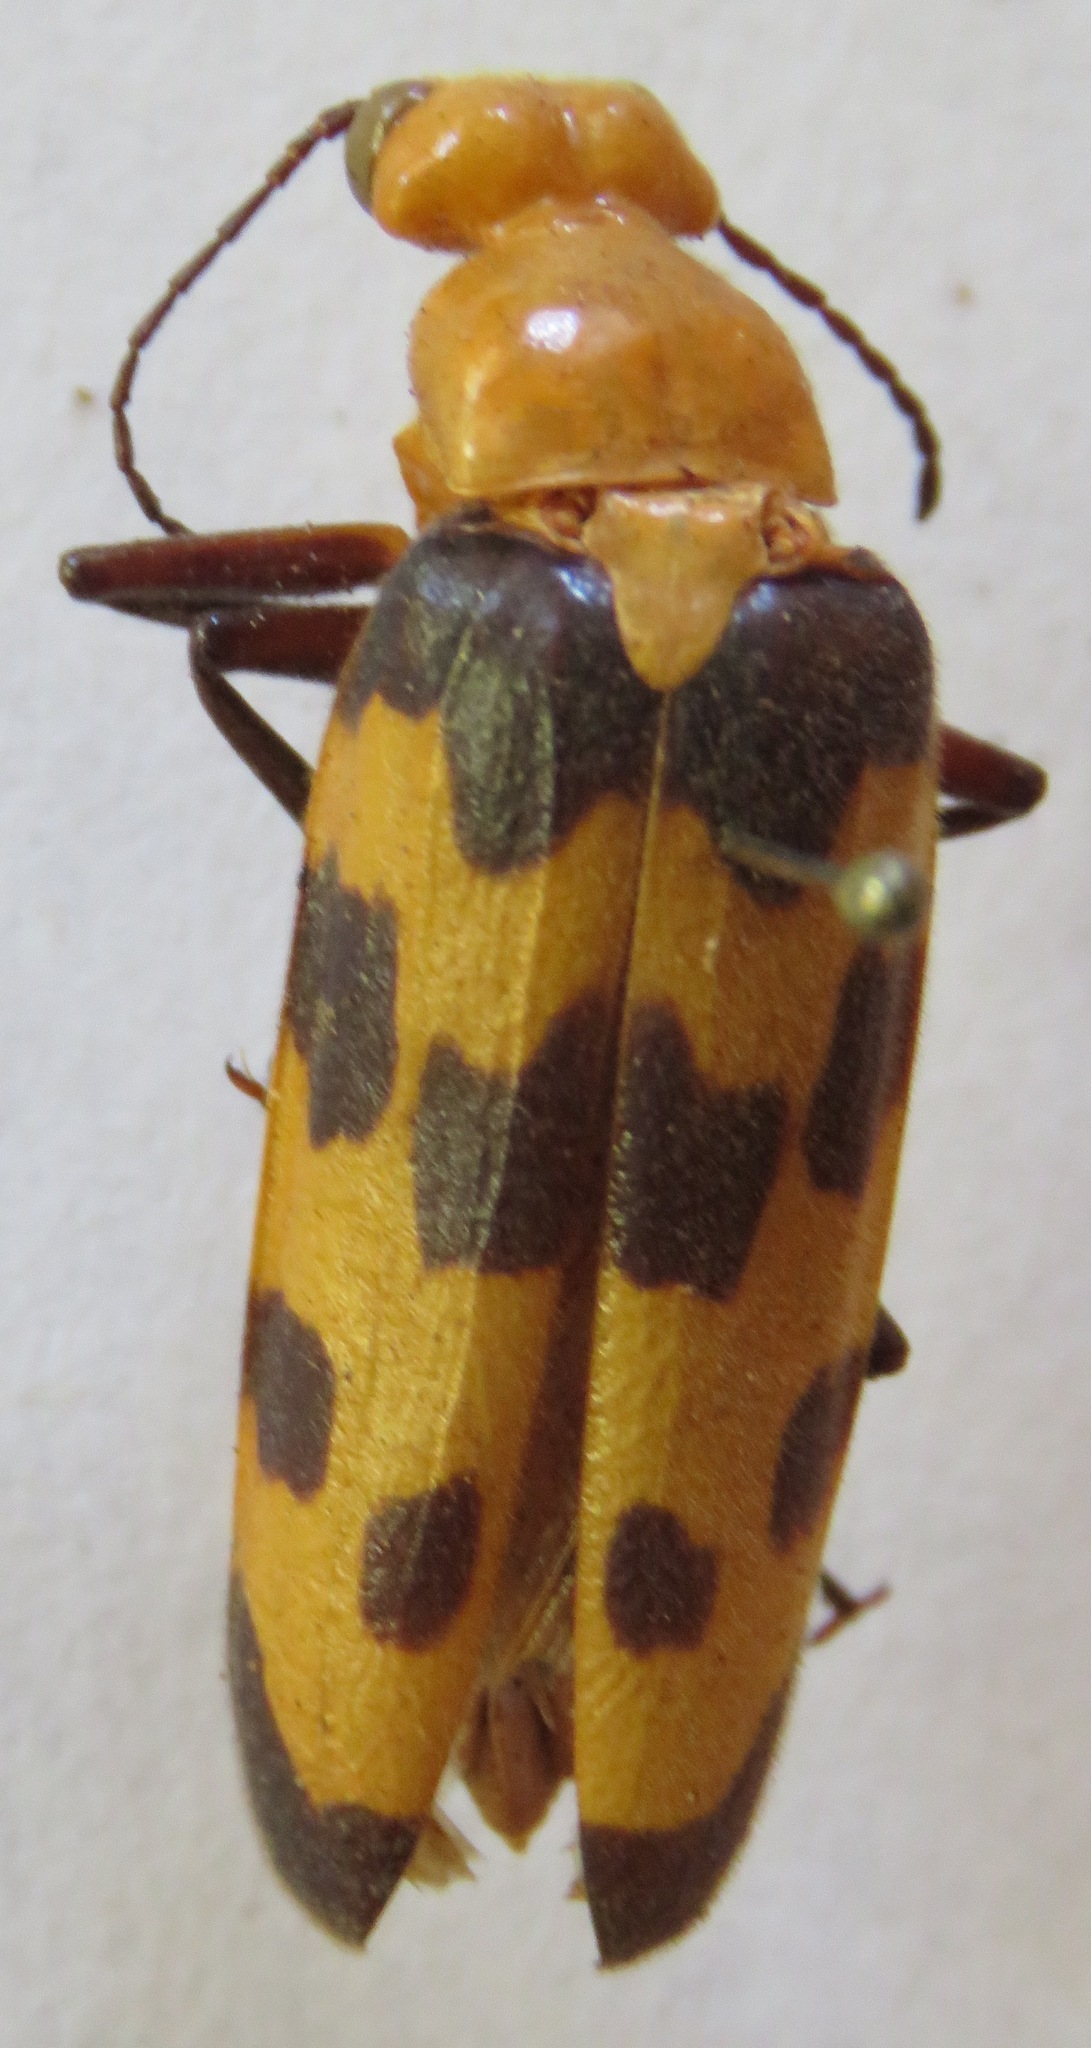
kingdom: Animalia
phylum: Arthropoda
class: Insecta
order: Coleoptera
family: Meloidae
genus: Cissites
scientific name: Cissites auriculata
